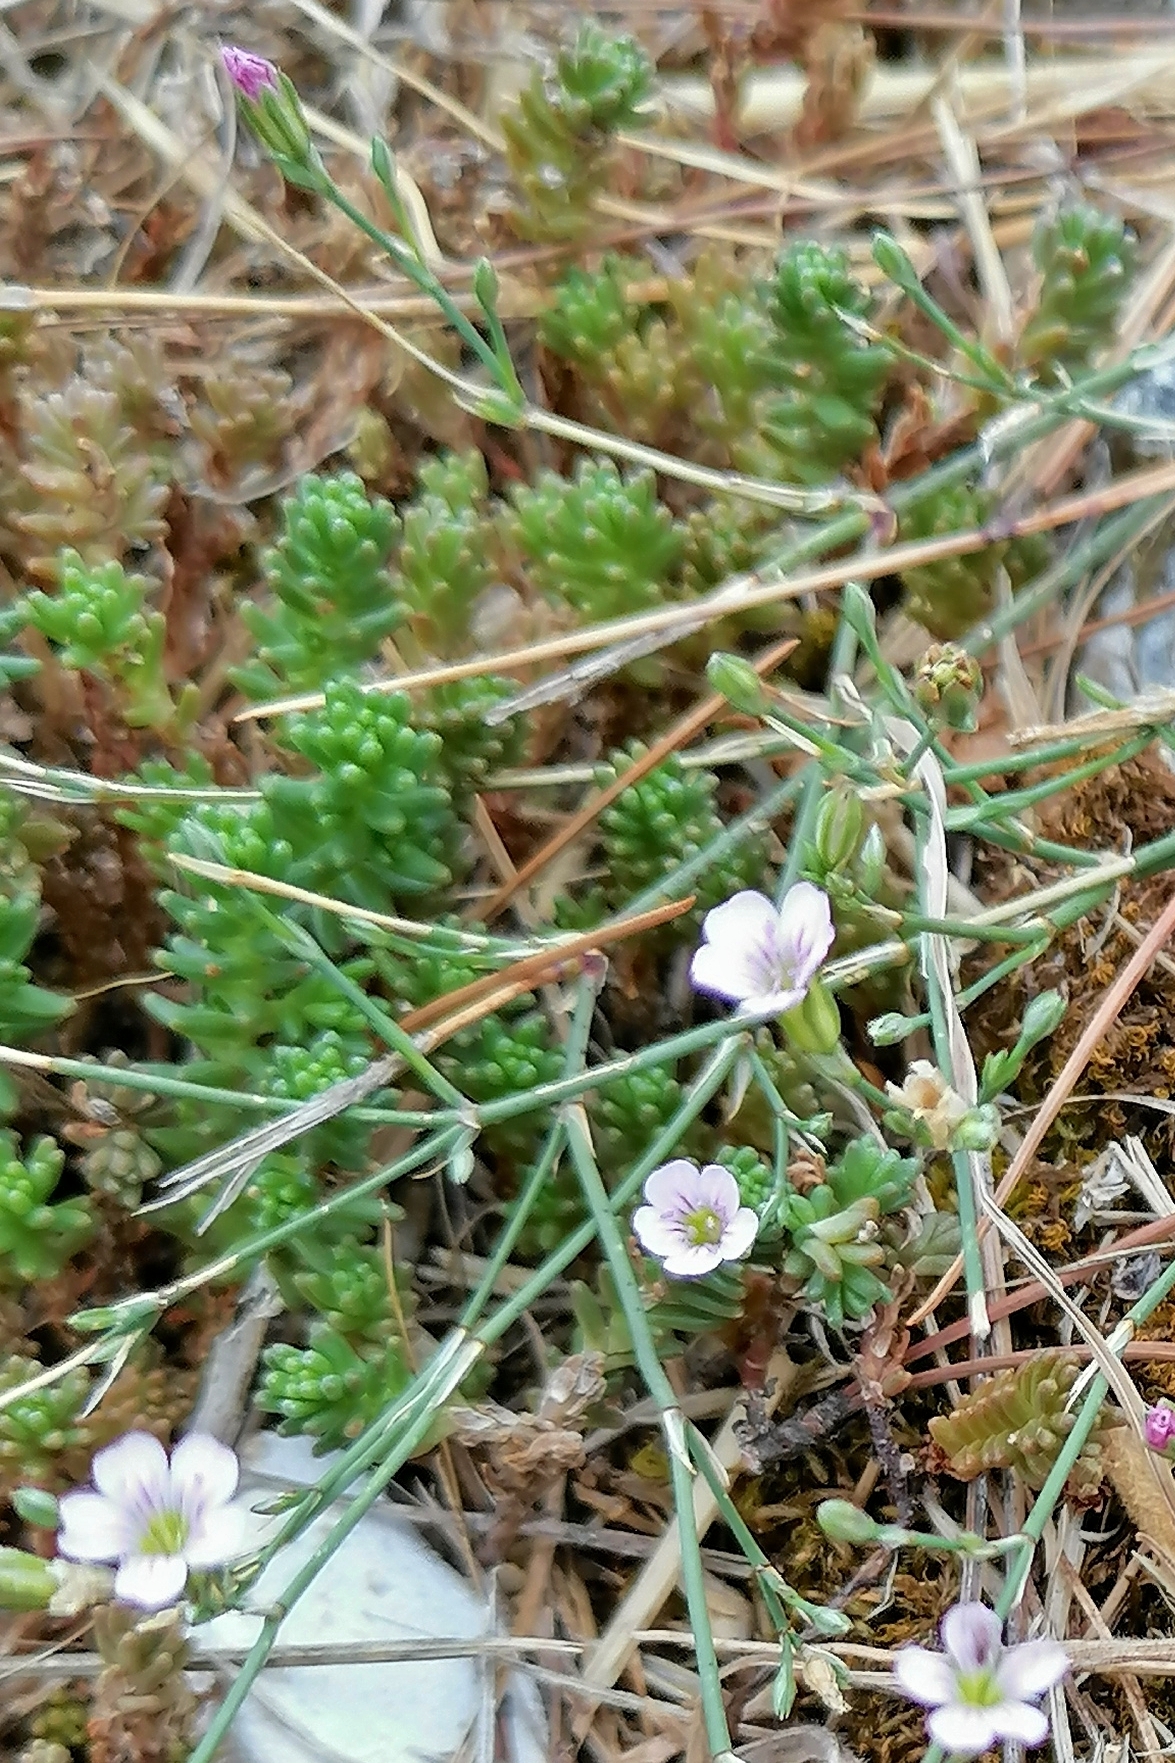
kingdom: Plantae
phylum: Tracheophyta
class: Magnoliopsida
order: Caryophyllales
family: Caryophyllaceae
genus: Petrorhagia
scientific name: Petrorhagia saxifraga
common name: Tunicflower
